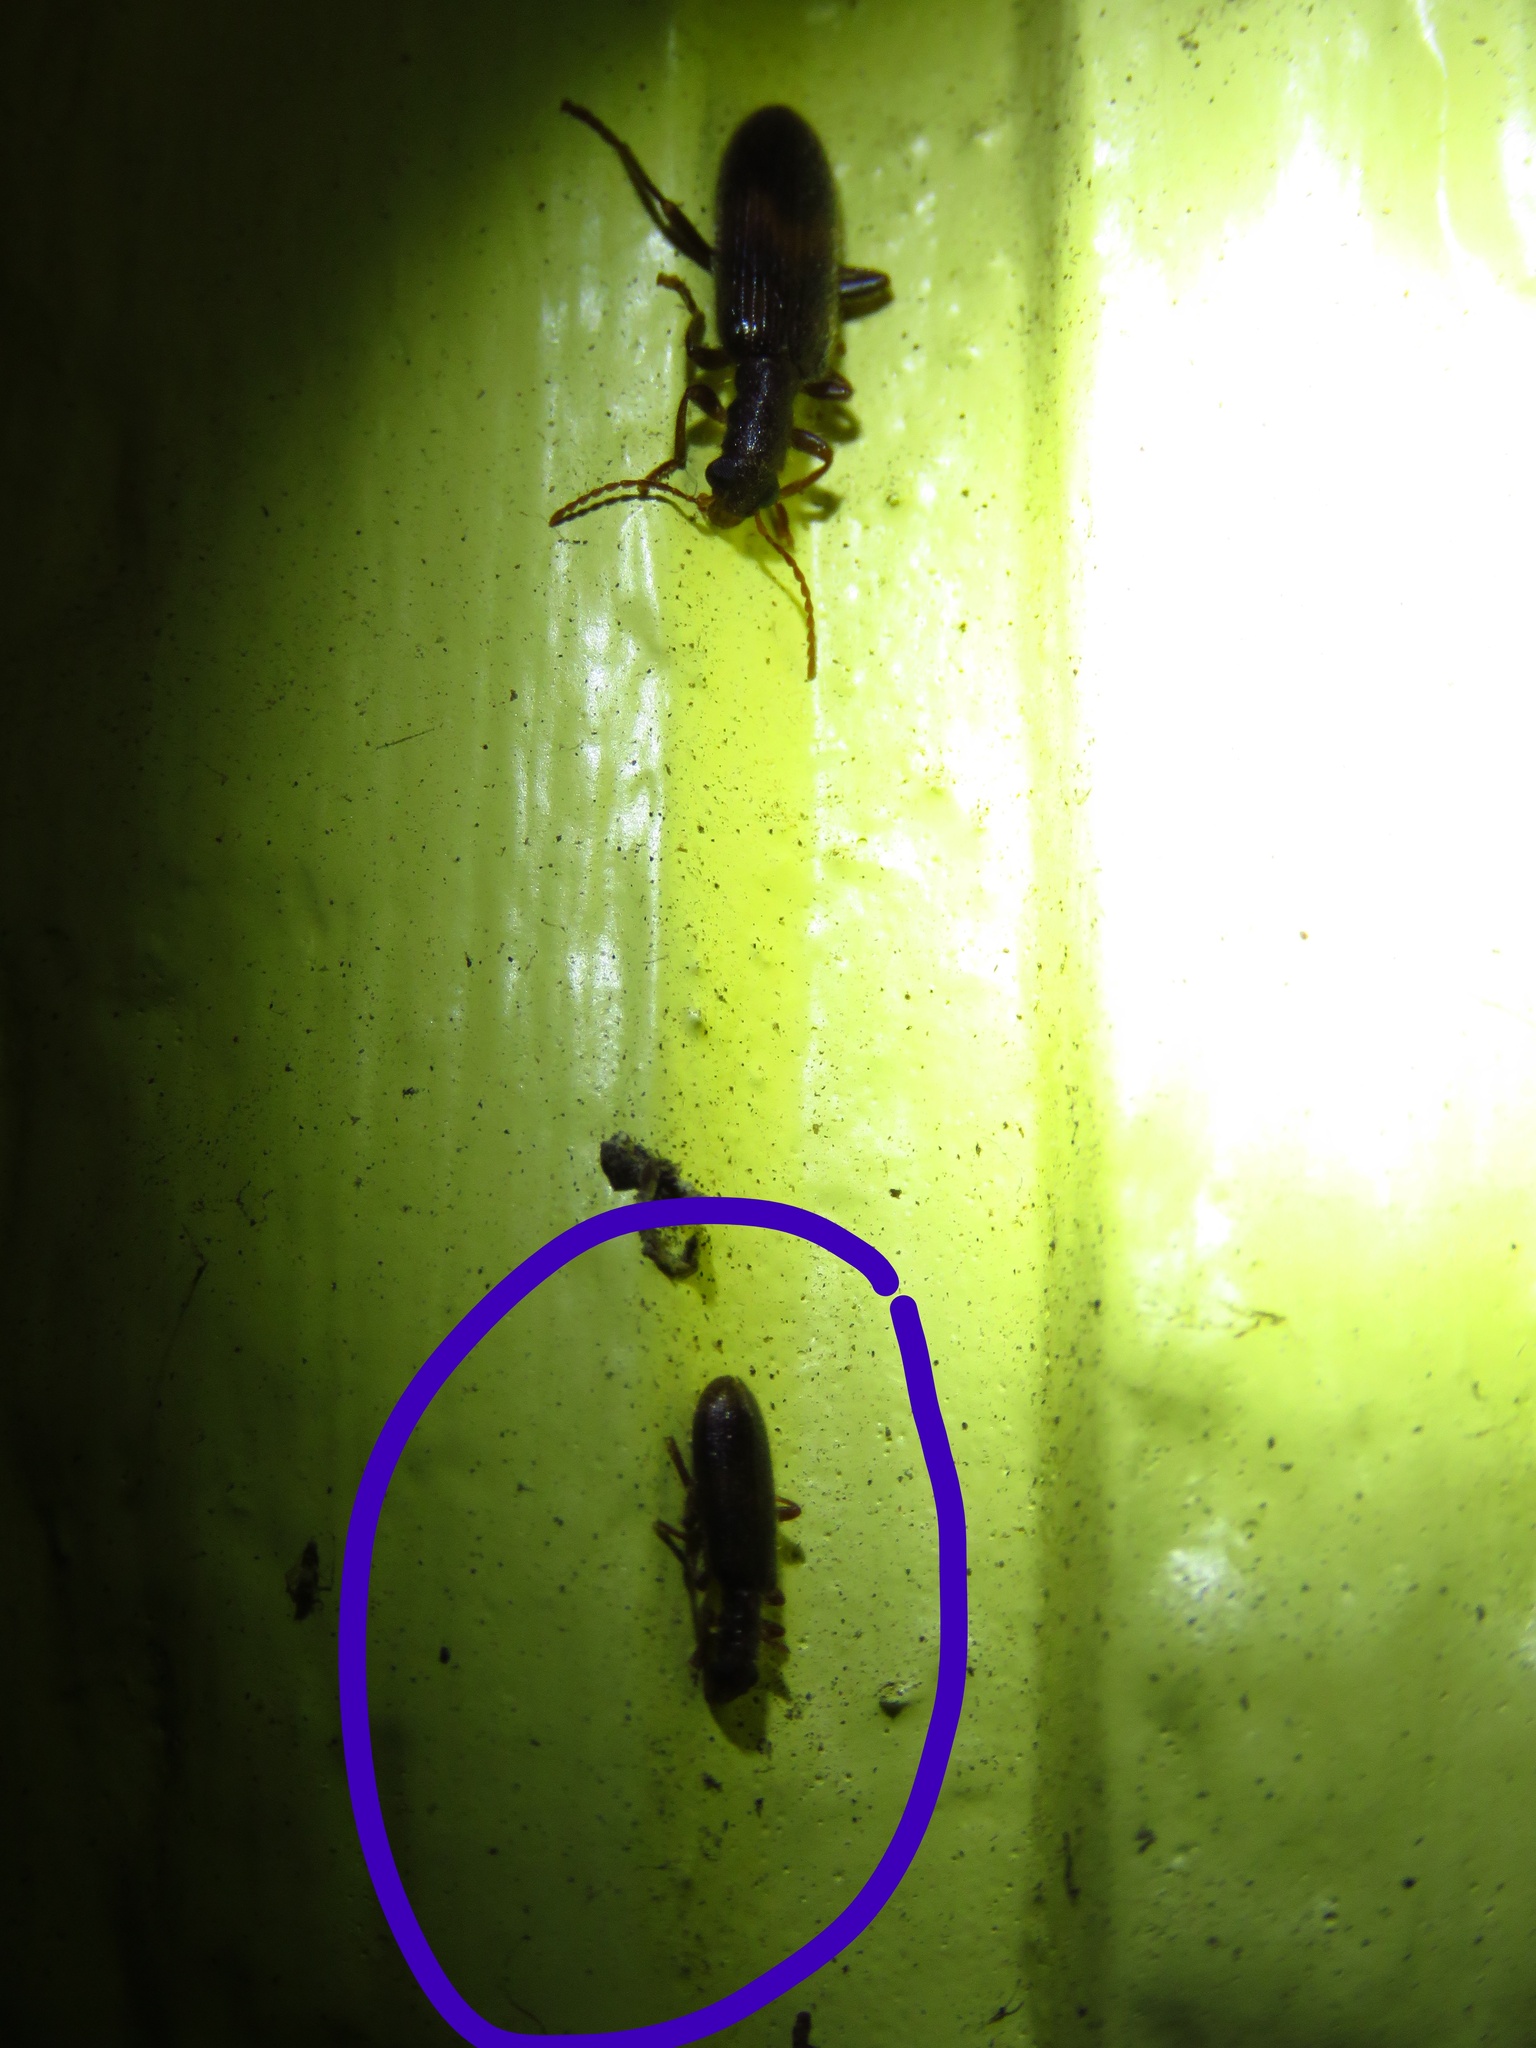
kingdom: Animalia
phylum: Arthropoda
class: Insecta
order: Coleoptera
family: Cleridae
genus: Cymatodera
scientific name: Cymatodera sirpata
